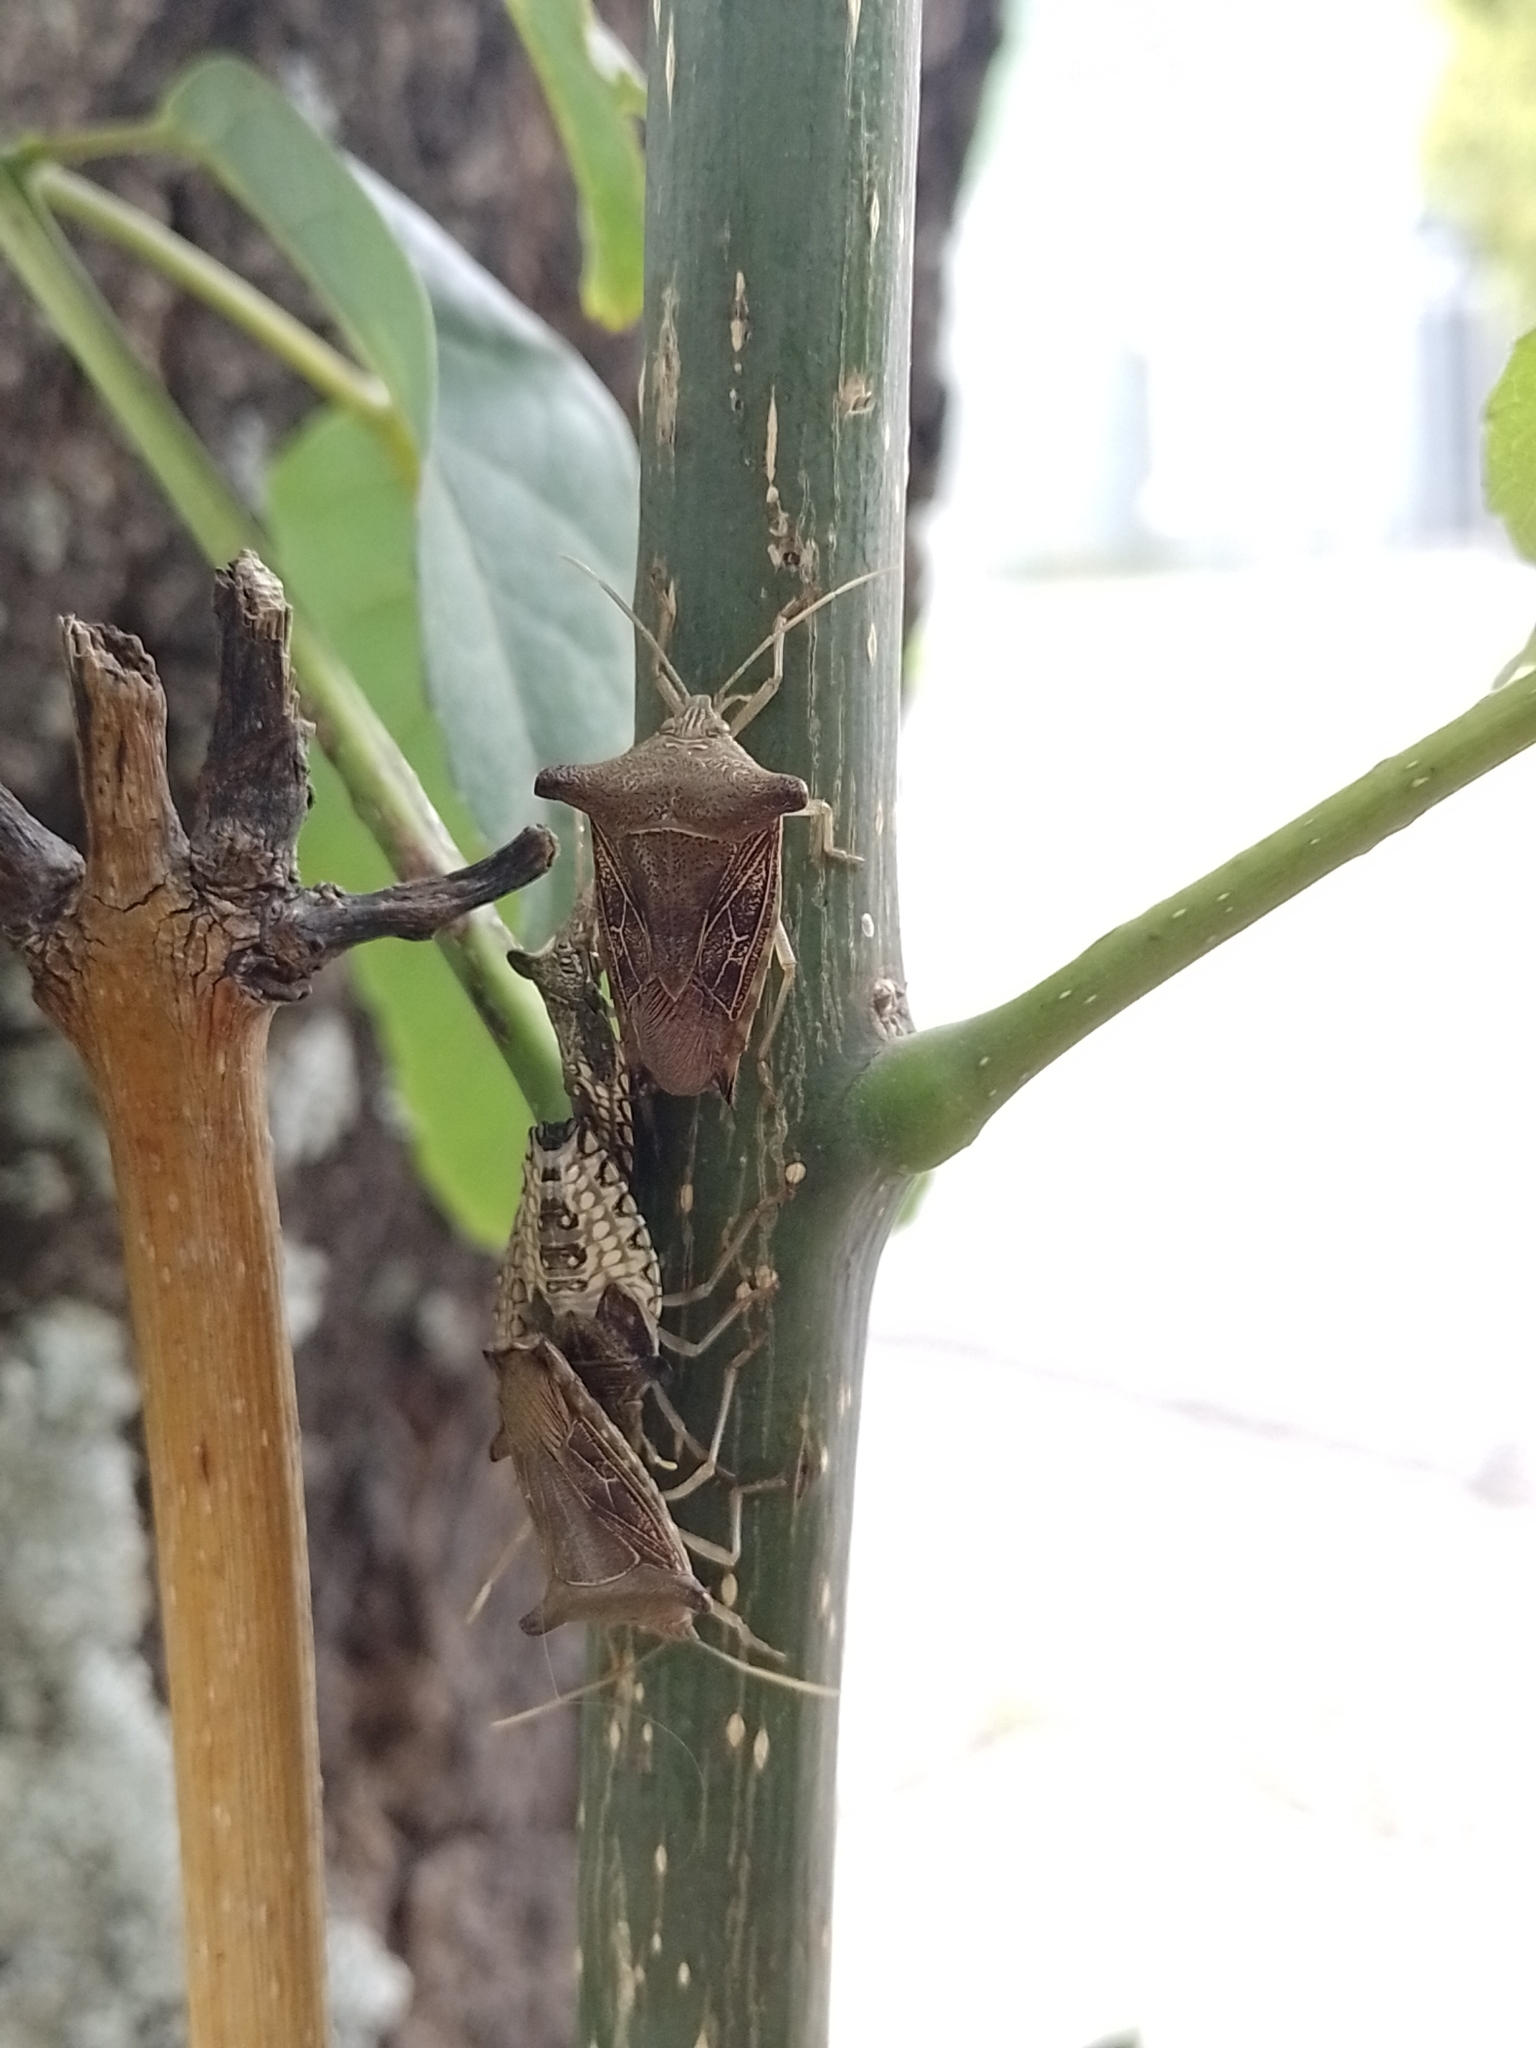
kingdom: Animalia
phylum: Arthropoda
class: Insecta
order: Hemiptera
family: Pentatomidae
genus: Edessa
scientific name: Edessa
